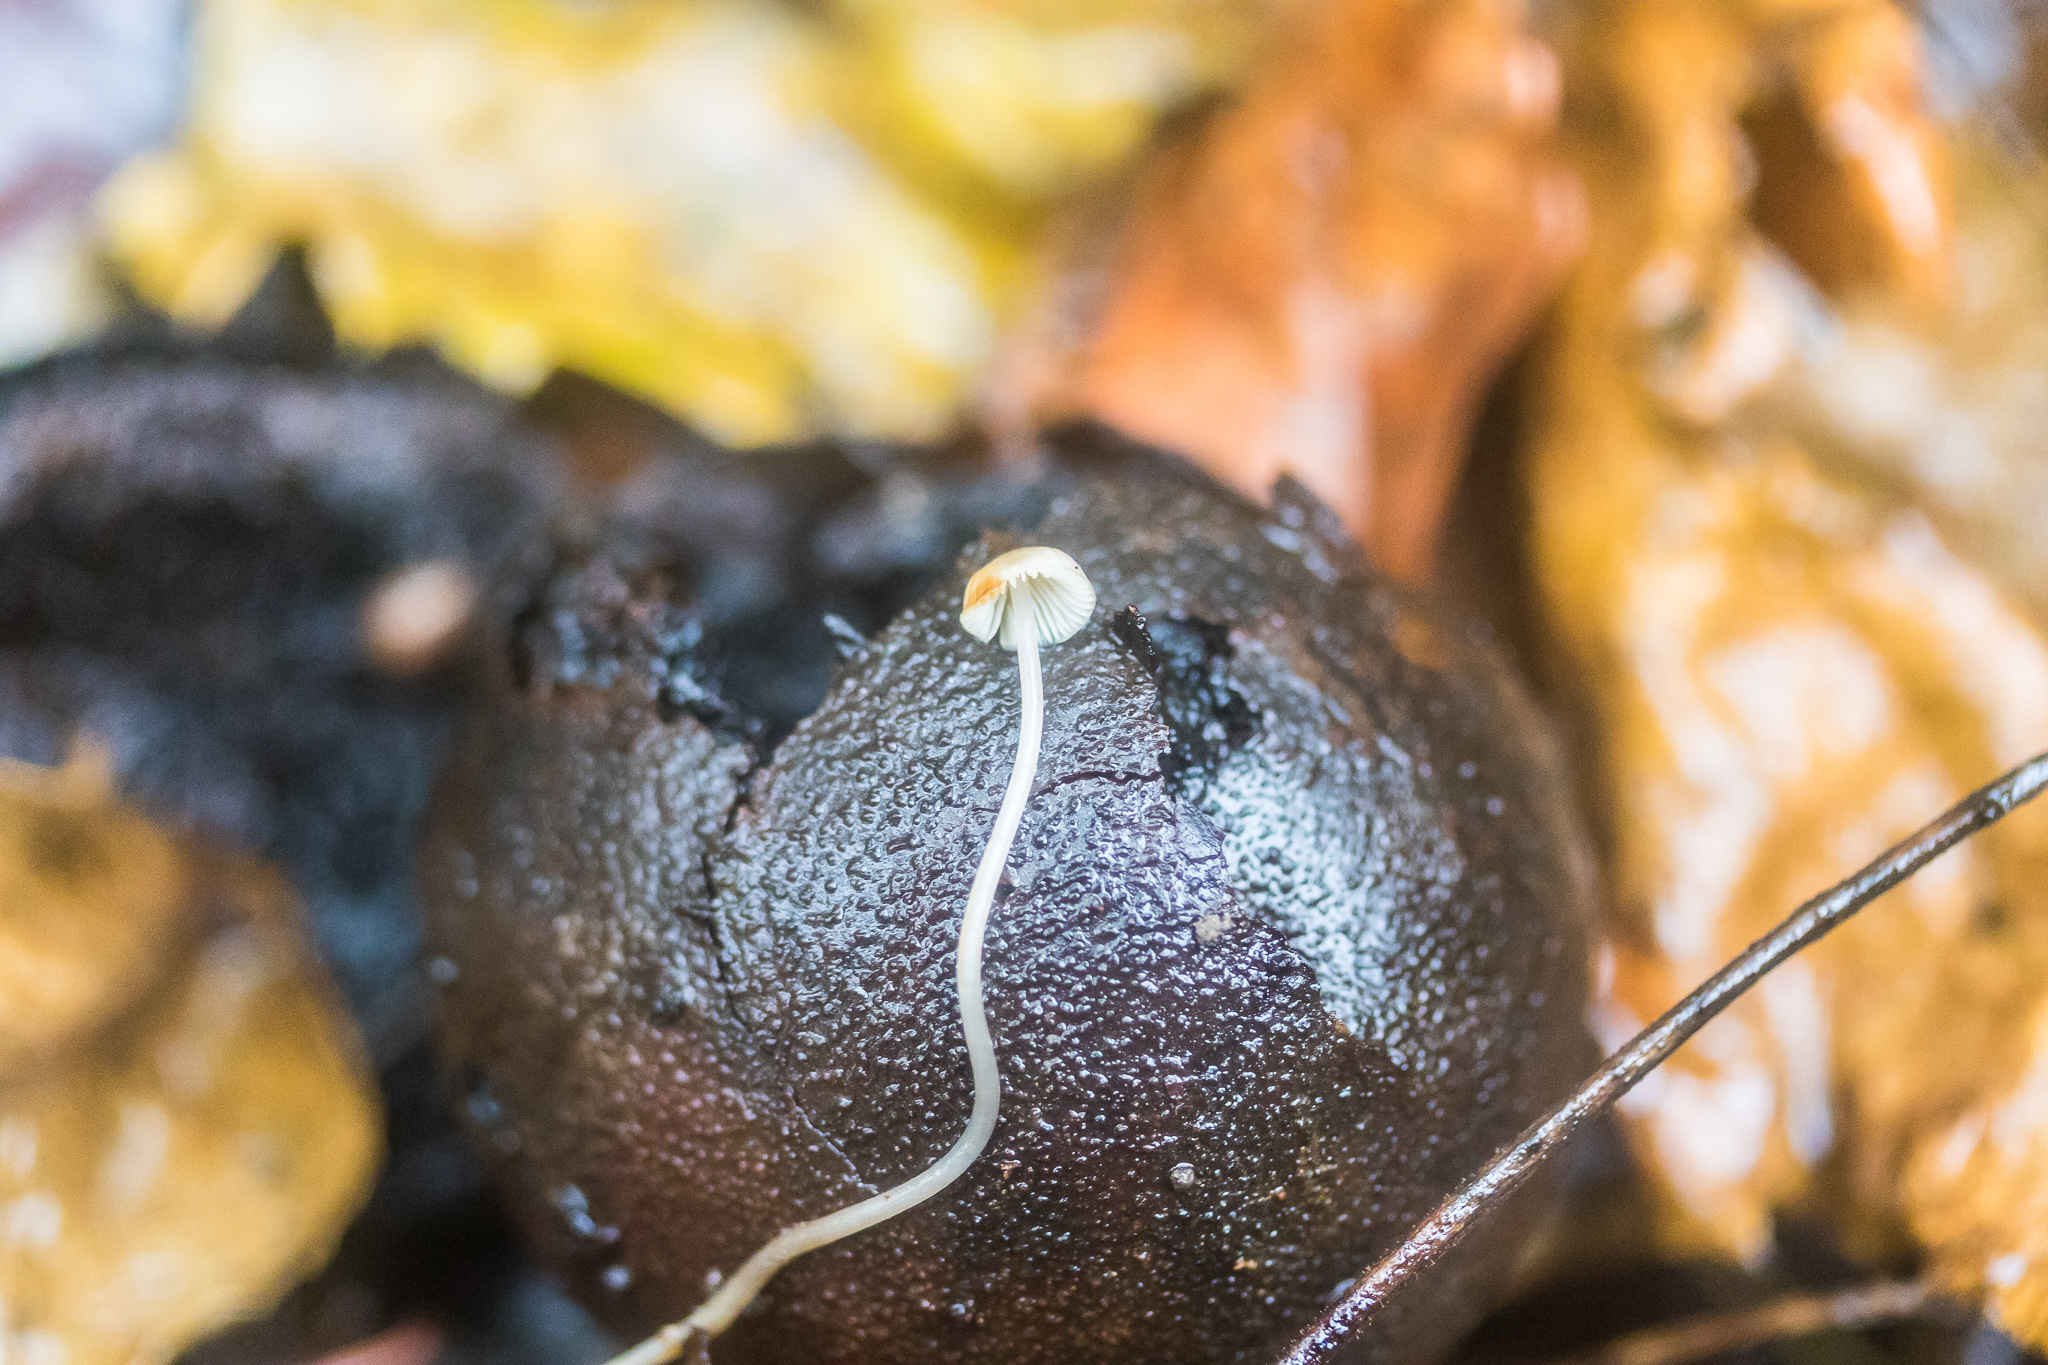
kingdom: Fungi
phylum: Basidiomycota
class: Agaricomycetes
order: Agaricales
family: Mycenaceae
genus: Mycena
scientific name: Mycena crocea
